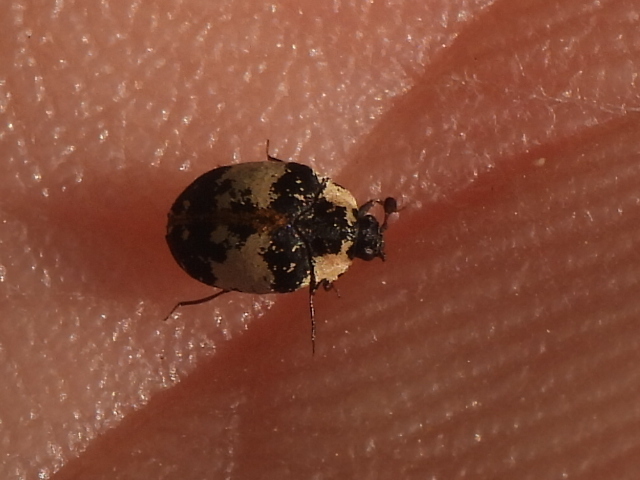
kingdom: Animalia
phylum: Arthropoda
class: Insecta
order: Coleoptera
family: Dermestidae
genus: Anthrenus
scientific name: Anthrenus thoracicus
